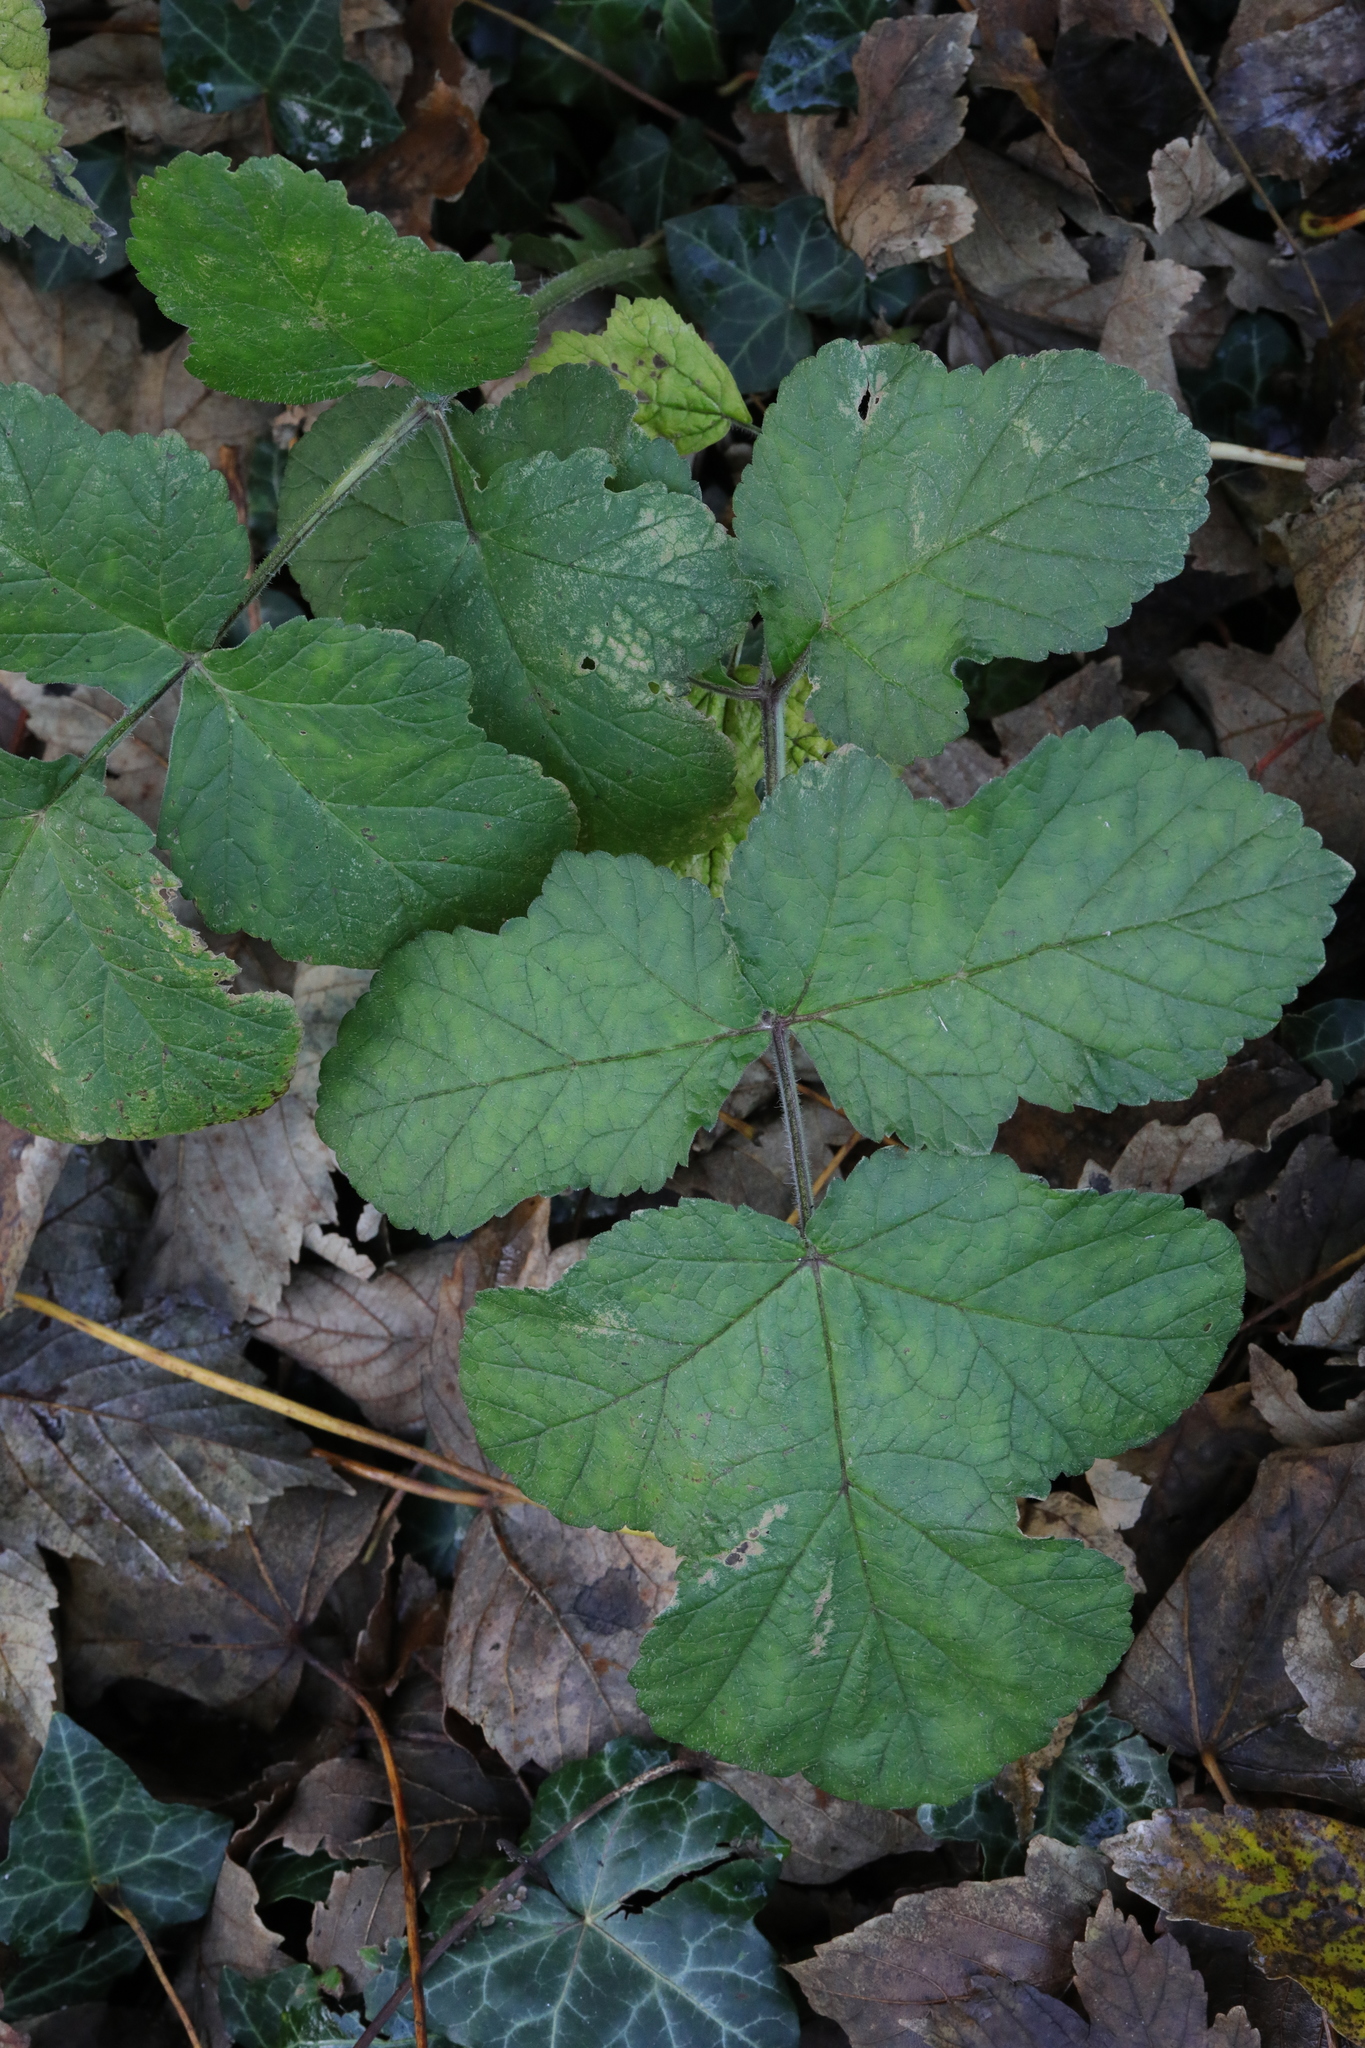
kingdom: Plantae
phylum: Tracheophyta
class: Magnoliopsida
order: Apiales
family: Apiaceae
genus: Heracleum
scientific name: Heracleum sphondylium
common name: Hogweed
